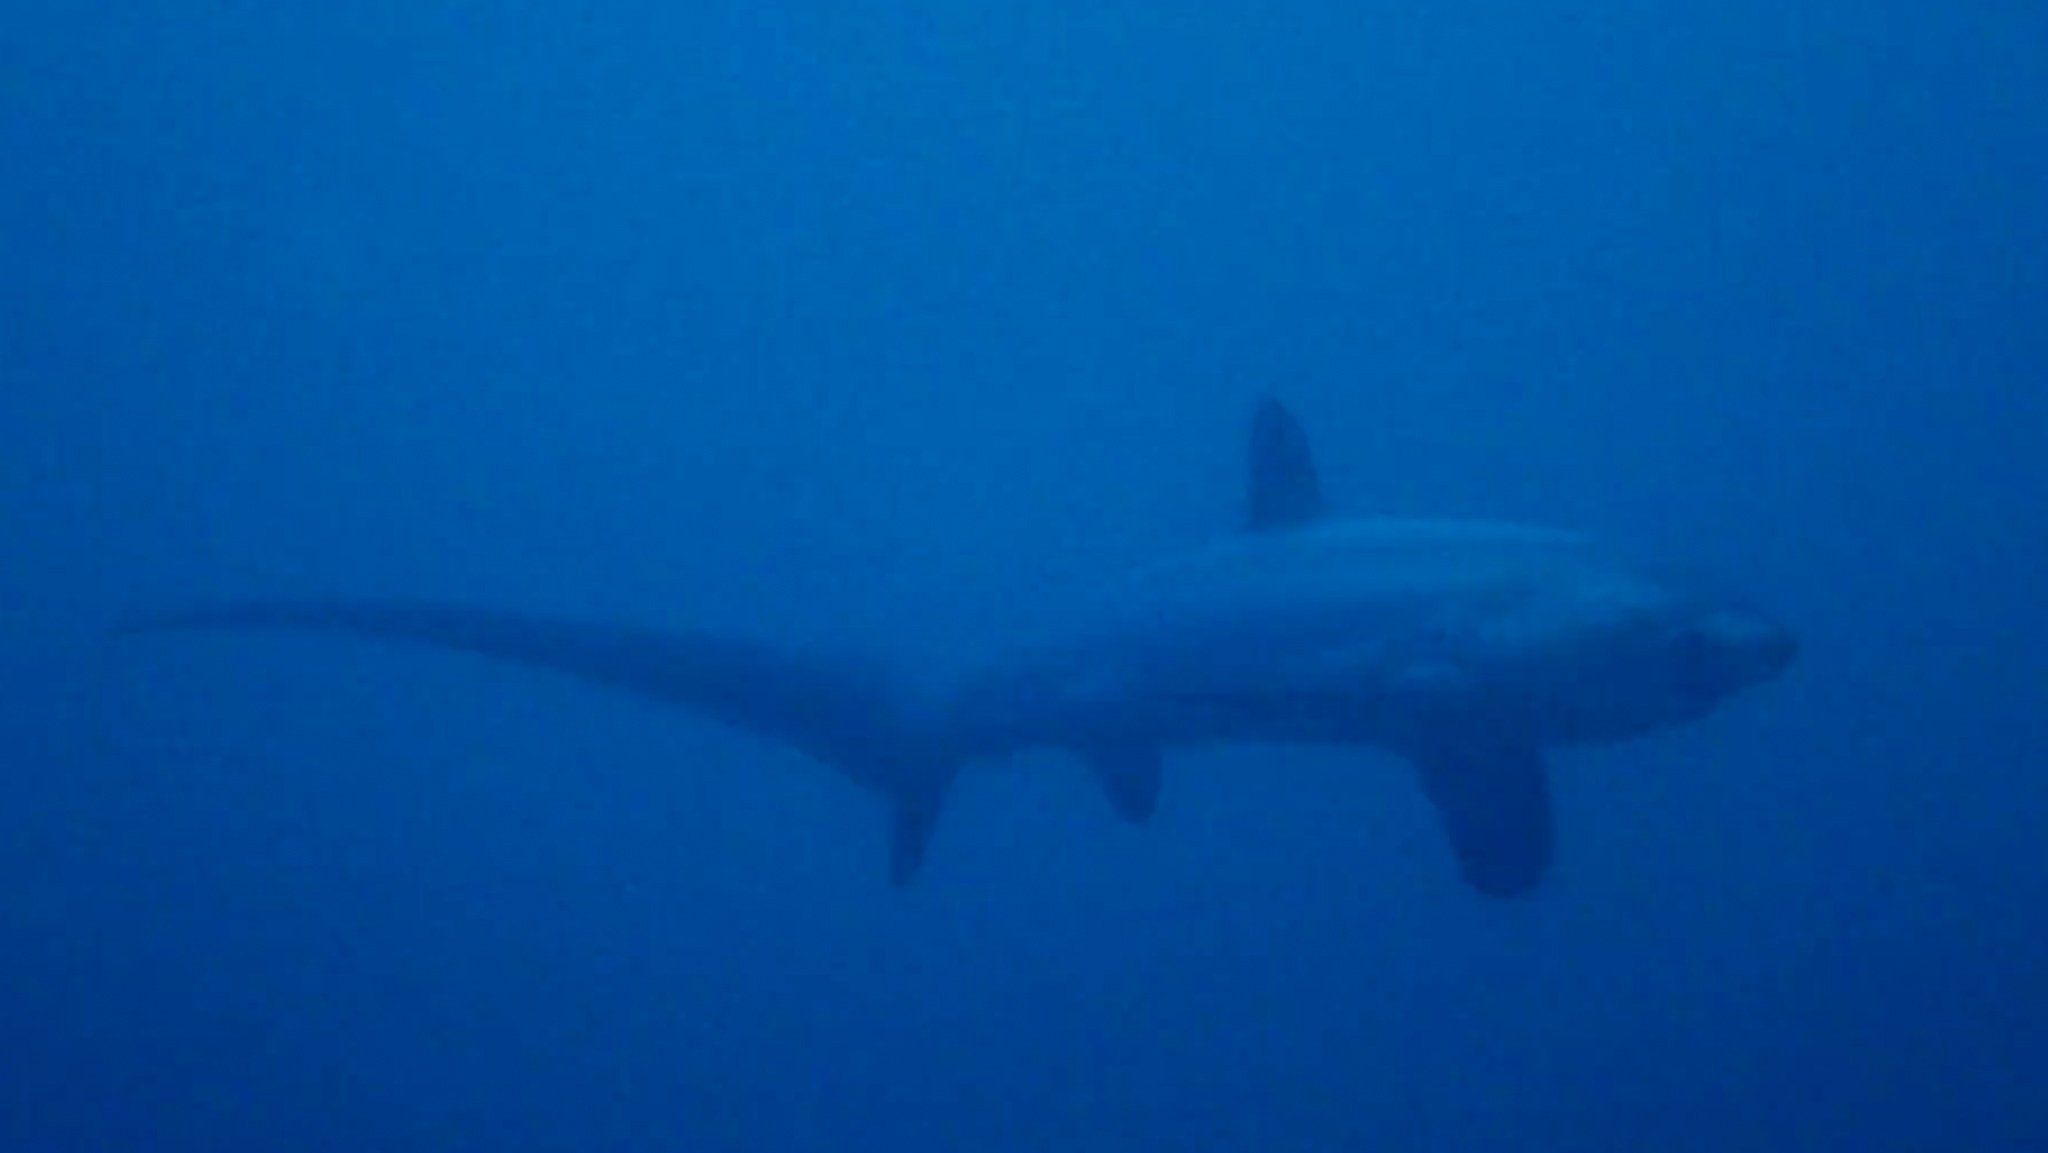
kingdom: Animalia
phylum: Chordata
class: Elasmobranchii
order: Lamniformes
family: Alopiidae
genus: Alopias
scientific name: Alopias pelagicus
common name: Pelagic thresher
